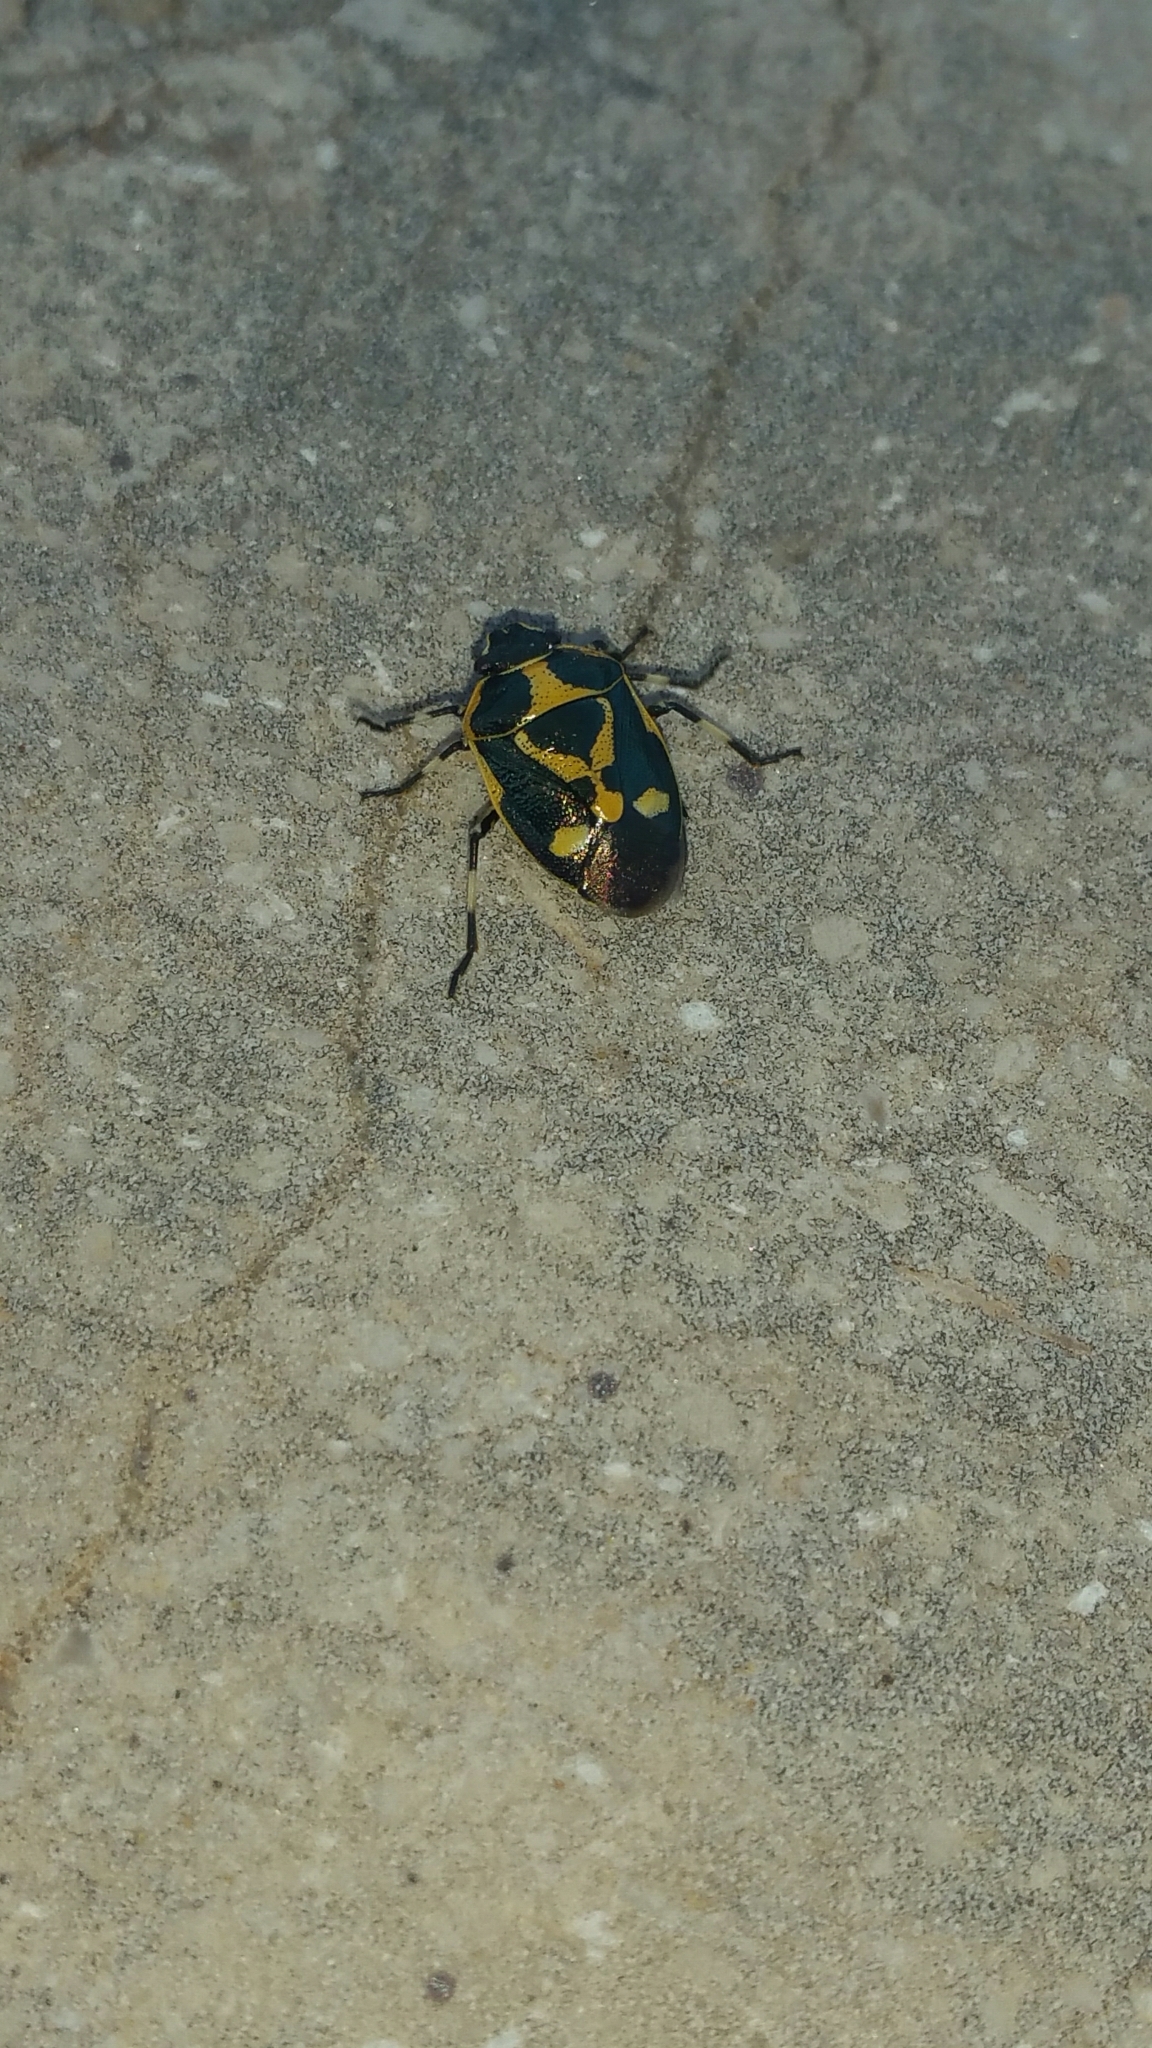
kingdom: Animalia
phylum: Arthropoda
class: Insecta
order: Hemiptera
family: Pentatomidae
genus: Eurydema
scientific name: Eurydema oleracea
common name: Cabbage bug
